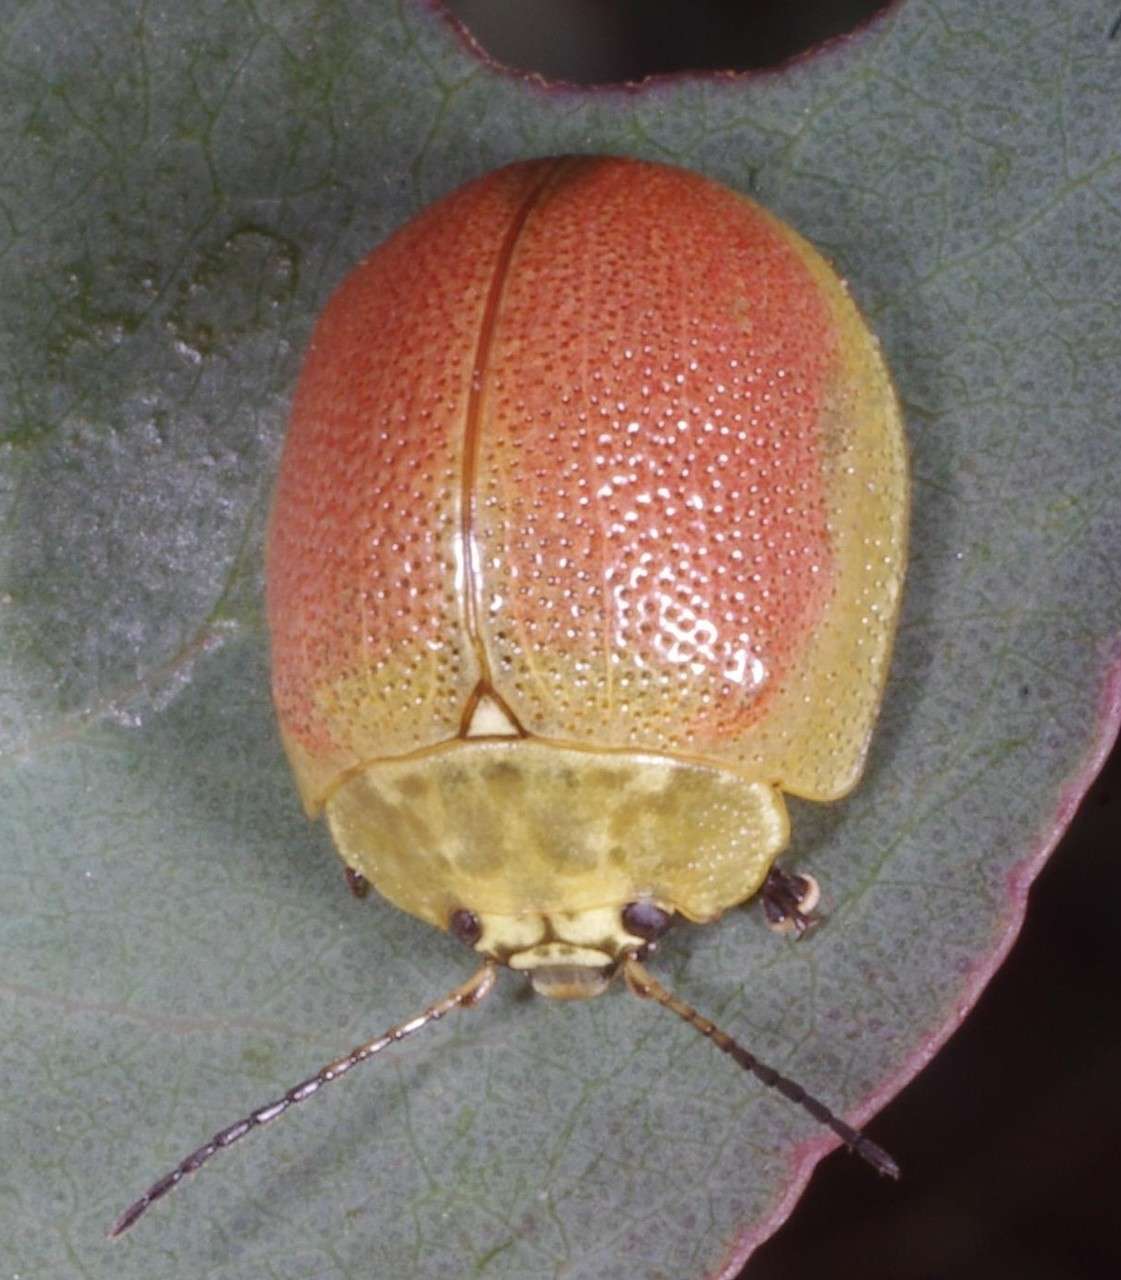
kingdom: Animalia
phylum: Arthropoda
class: Insecta
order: Coleoptera
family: Chrysomelidae
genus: Paropsis
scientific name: Paropsis
